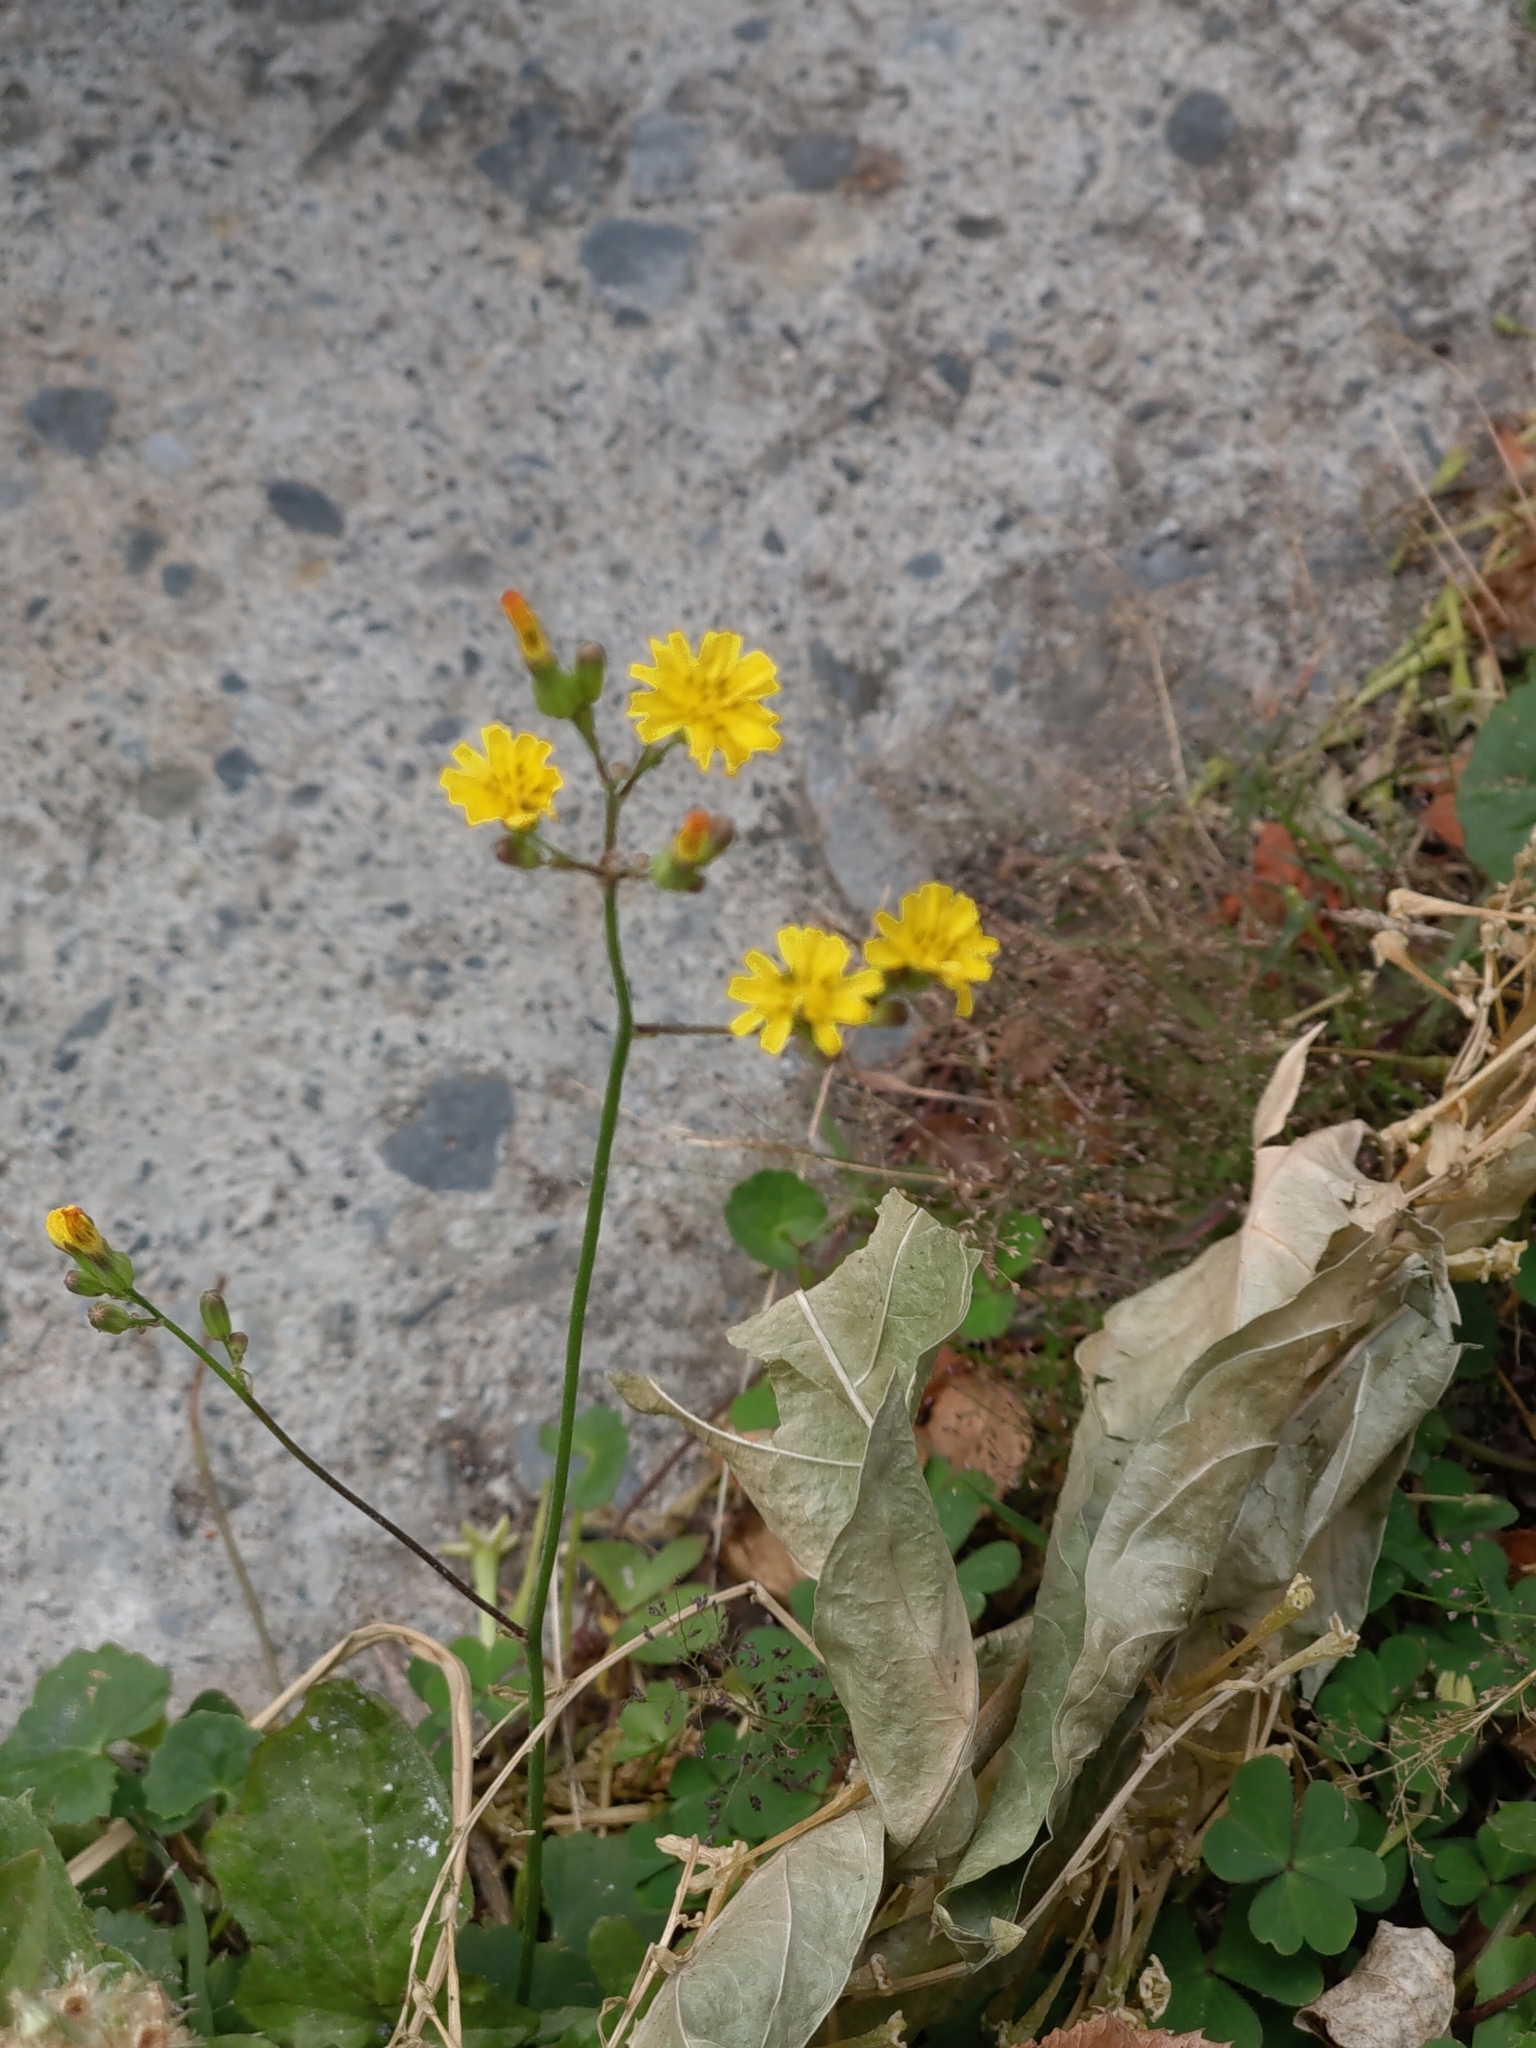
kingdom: Plantae
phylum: Tracheophyta
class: Magnoliopsida
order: Asterales
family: Asteraceae
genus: Youngia
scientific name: Youngia japonica
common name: Oriental false hawksbeard
